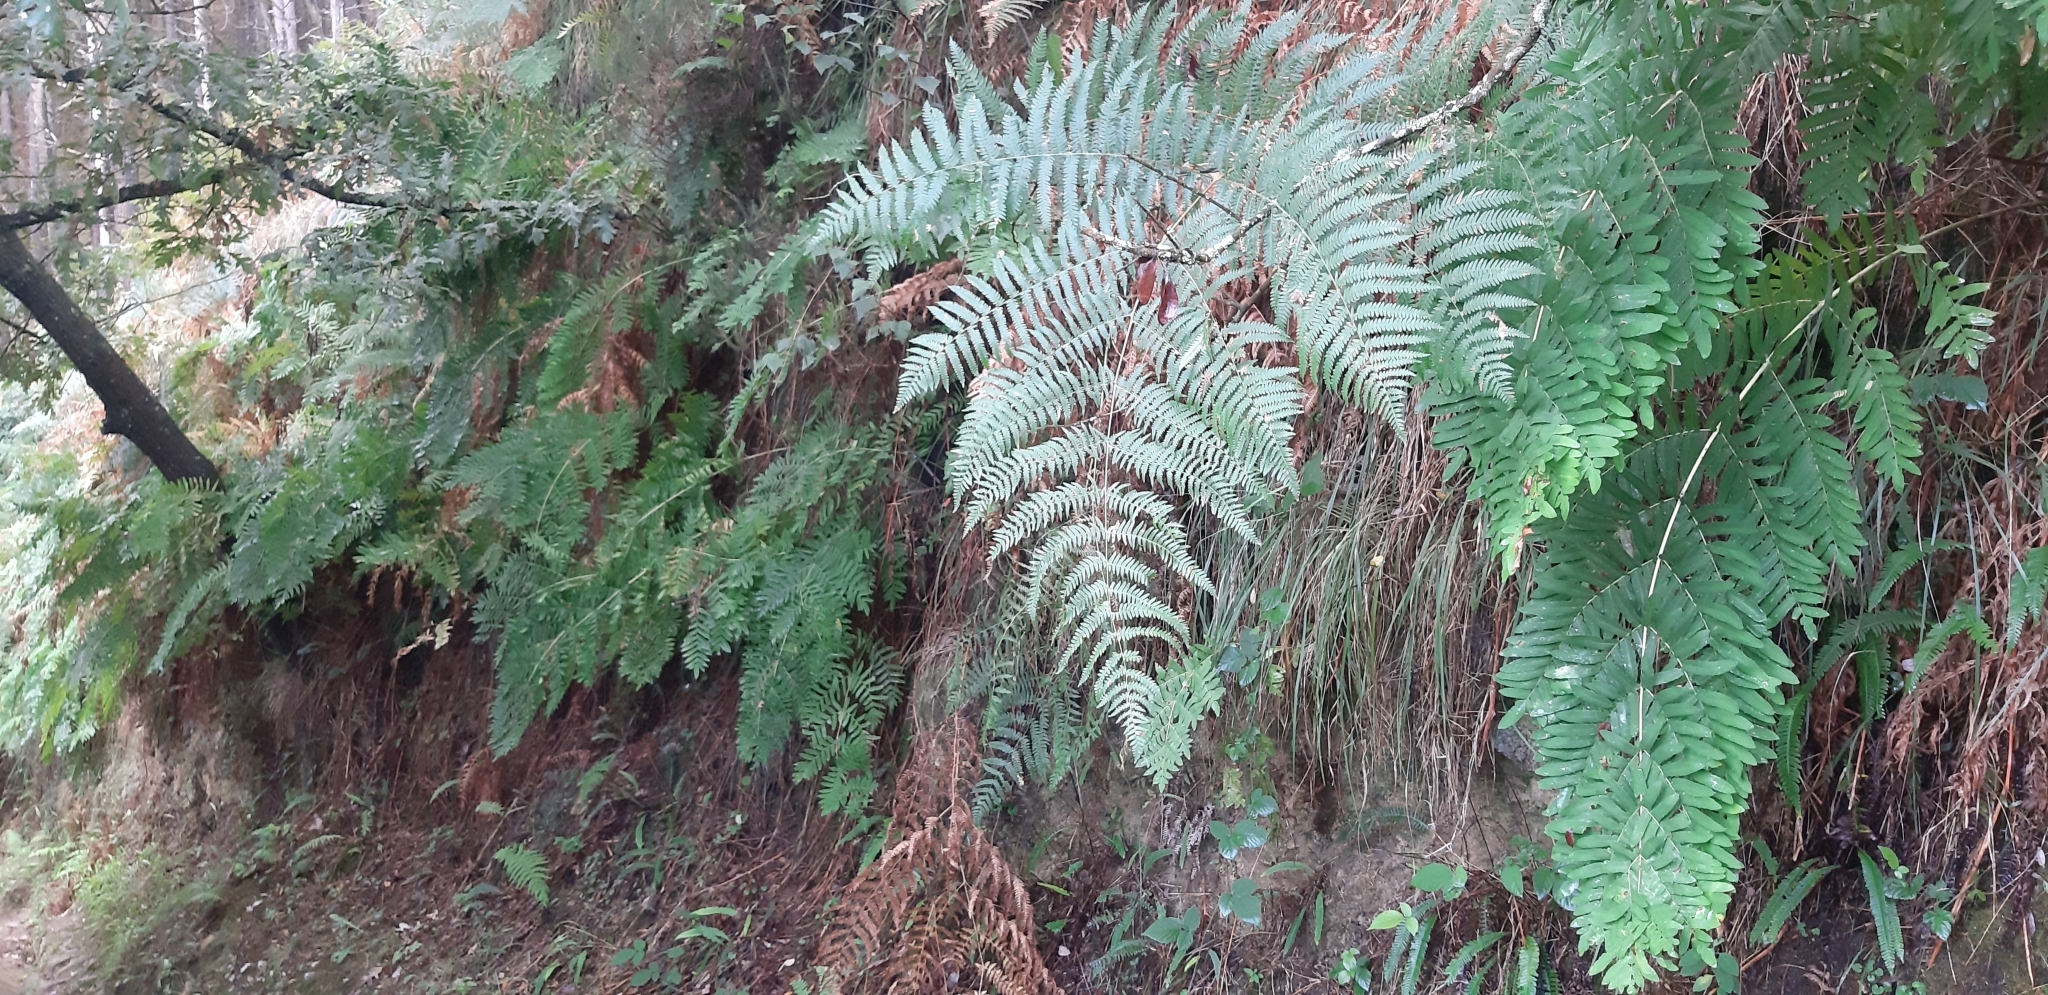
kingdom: Plantae
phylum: Tracheophyta
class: Polypodiopsida
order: Osmundales
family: Osmundaceae
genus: Osmunda
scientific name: Osmunda regalis
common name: Royal fern
